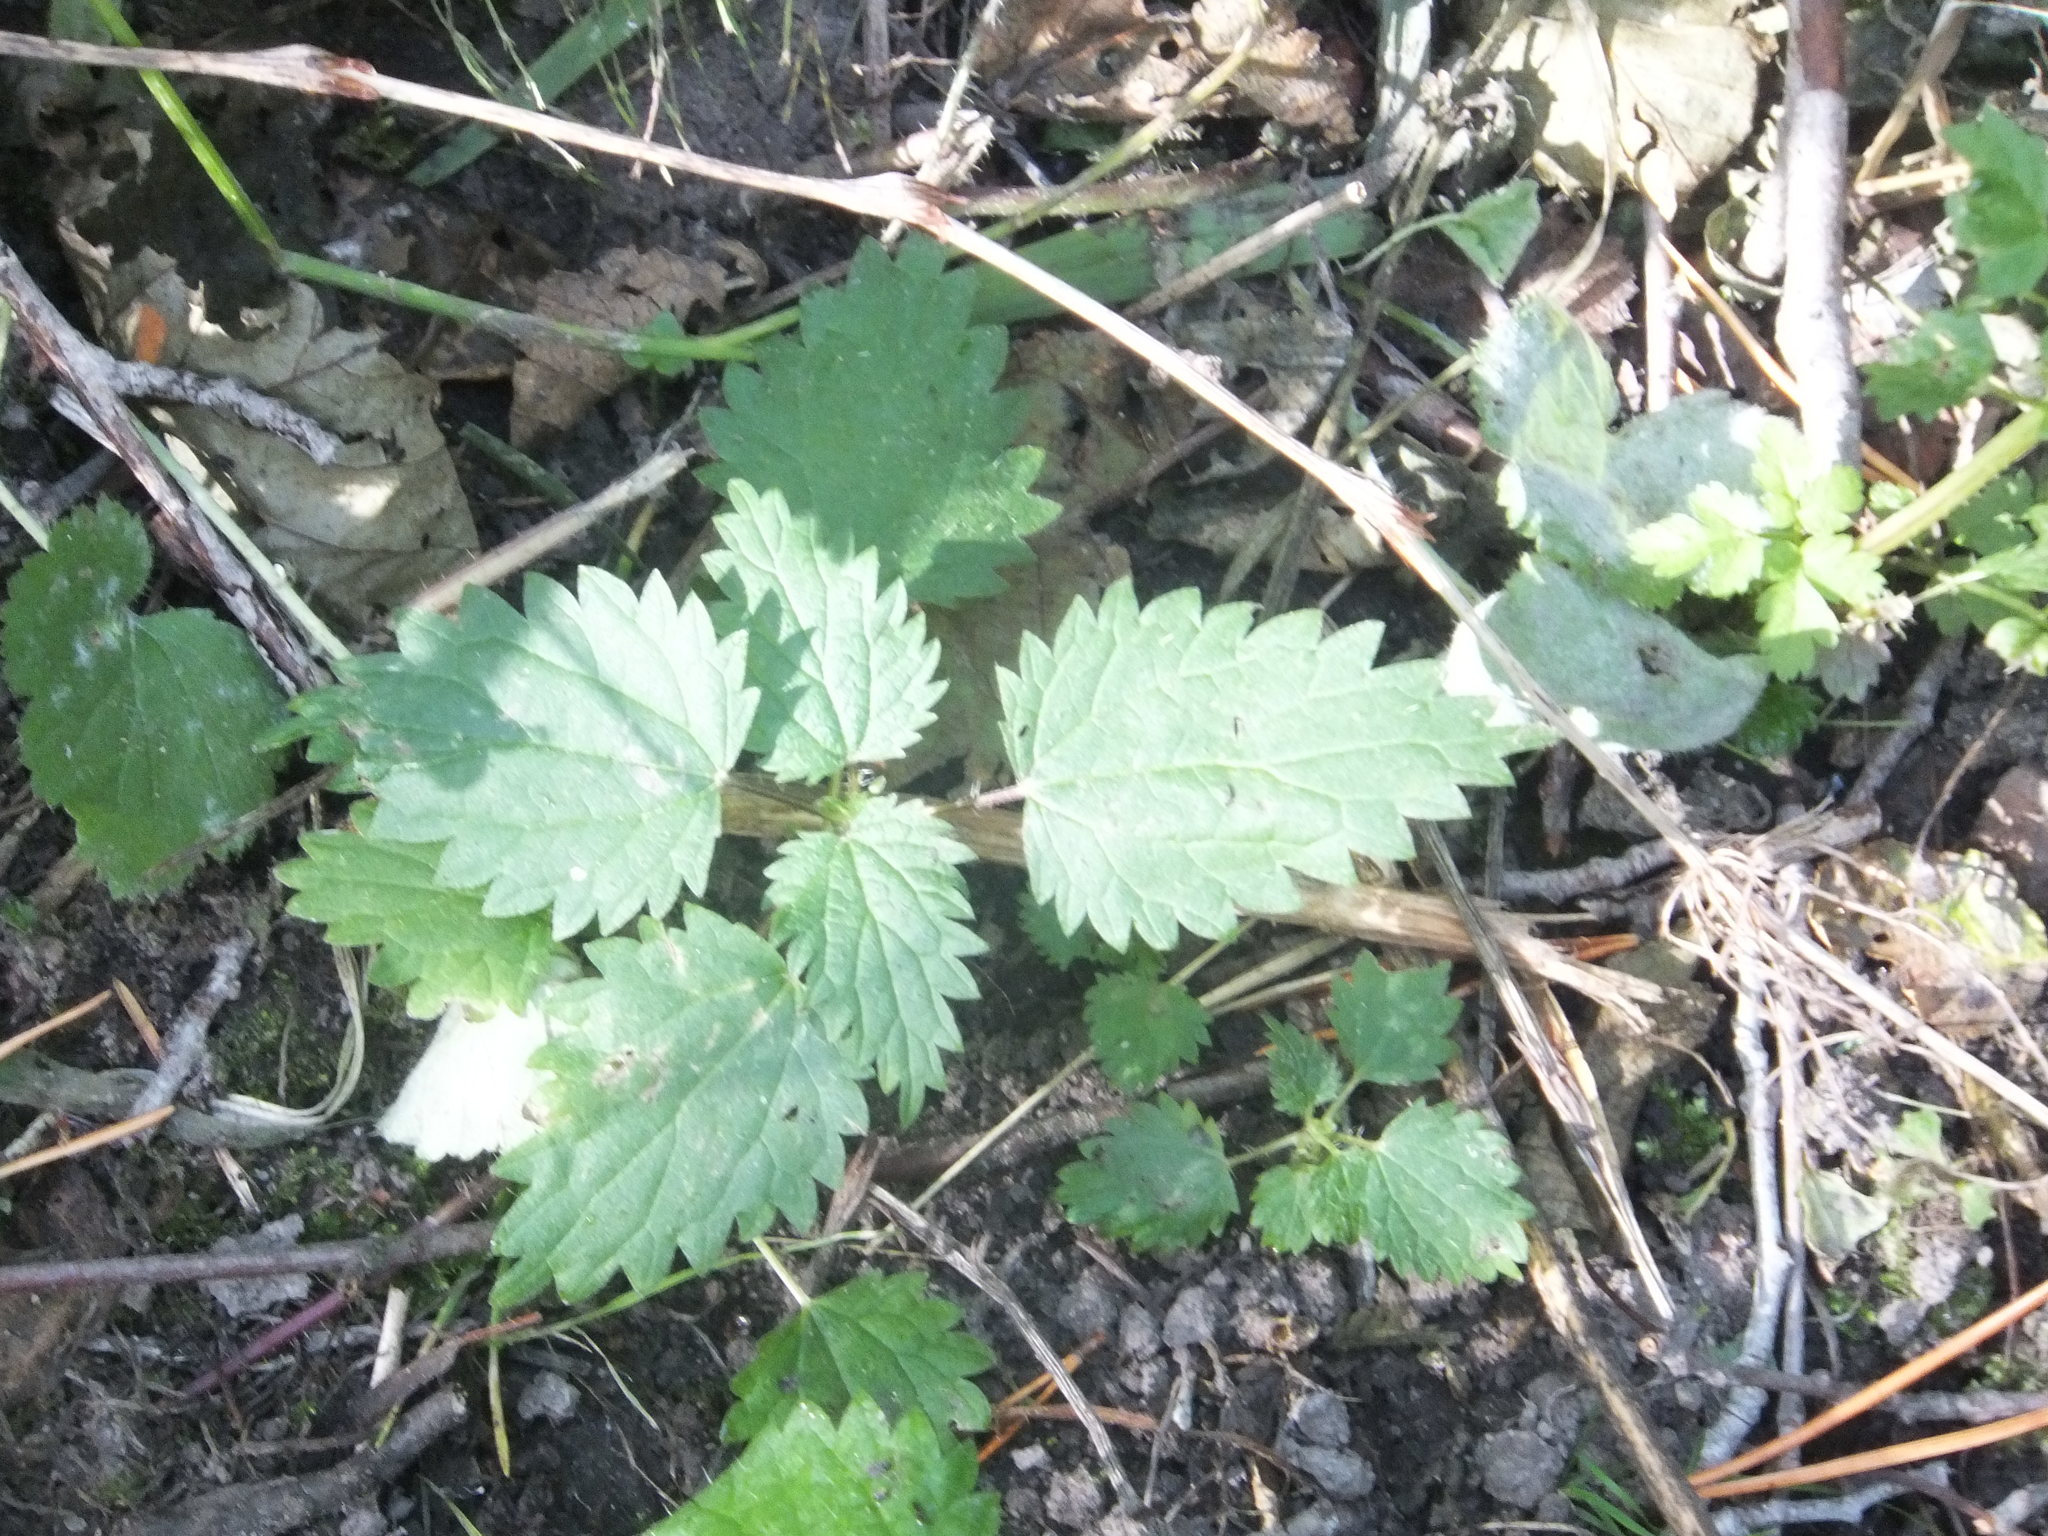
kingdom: Plantae
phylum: Tracheophyta
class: Magnoliopsida
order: Rosales
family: Urticaceae
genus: Urtica
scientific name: Urtica dioica
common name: Common nettle
